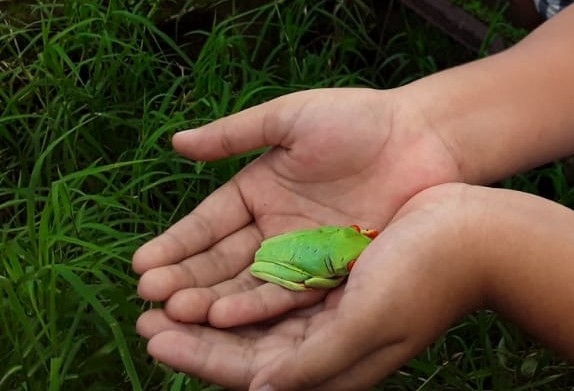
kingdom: Animalia
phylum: Chordata
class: Amphibia
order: Anura
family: Phyllomedusidae
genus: Agalychnis
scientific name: Agalychnis callidryas
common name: Red-eyed treefrog
